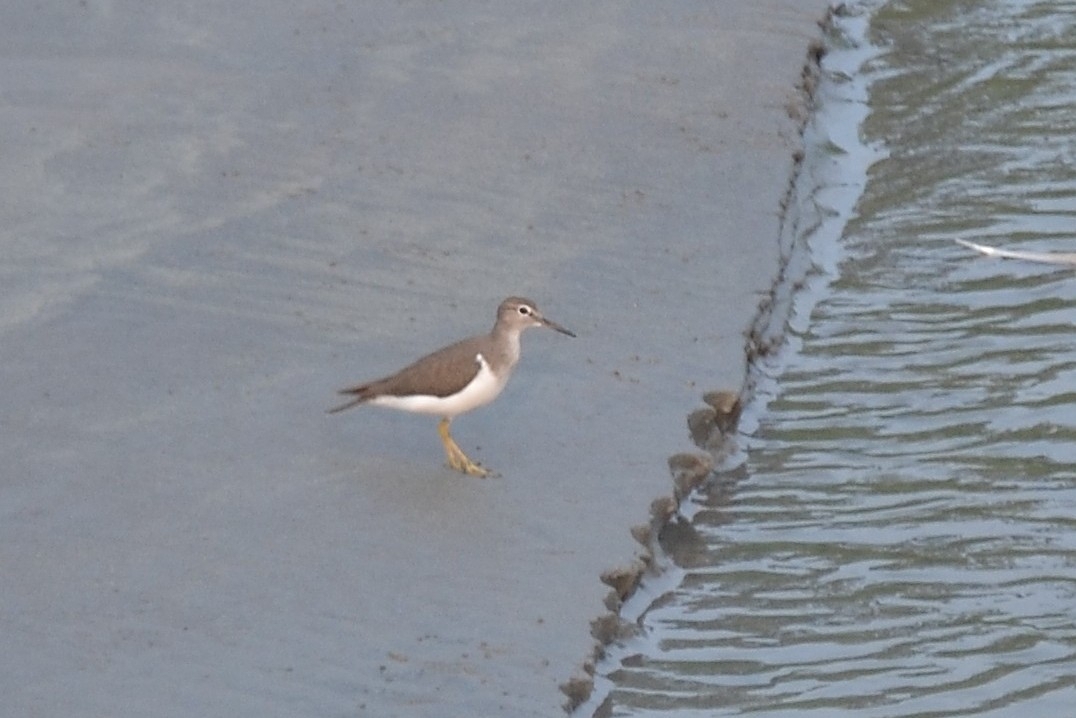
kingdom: Animalia
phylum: Chordata
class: Aves
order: Charadriiformes
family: Scolopacidae
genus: Actitis
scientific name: Actitis hypoleucos
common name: Common sandpiper
